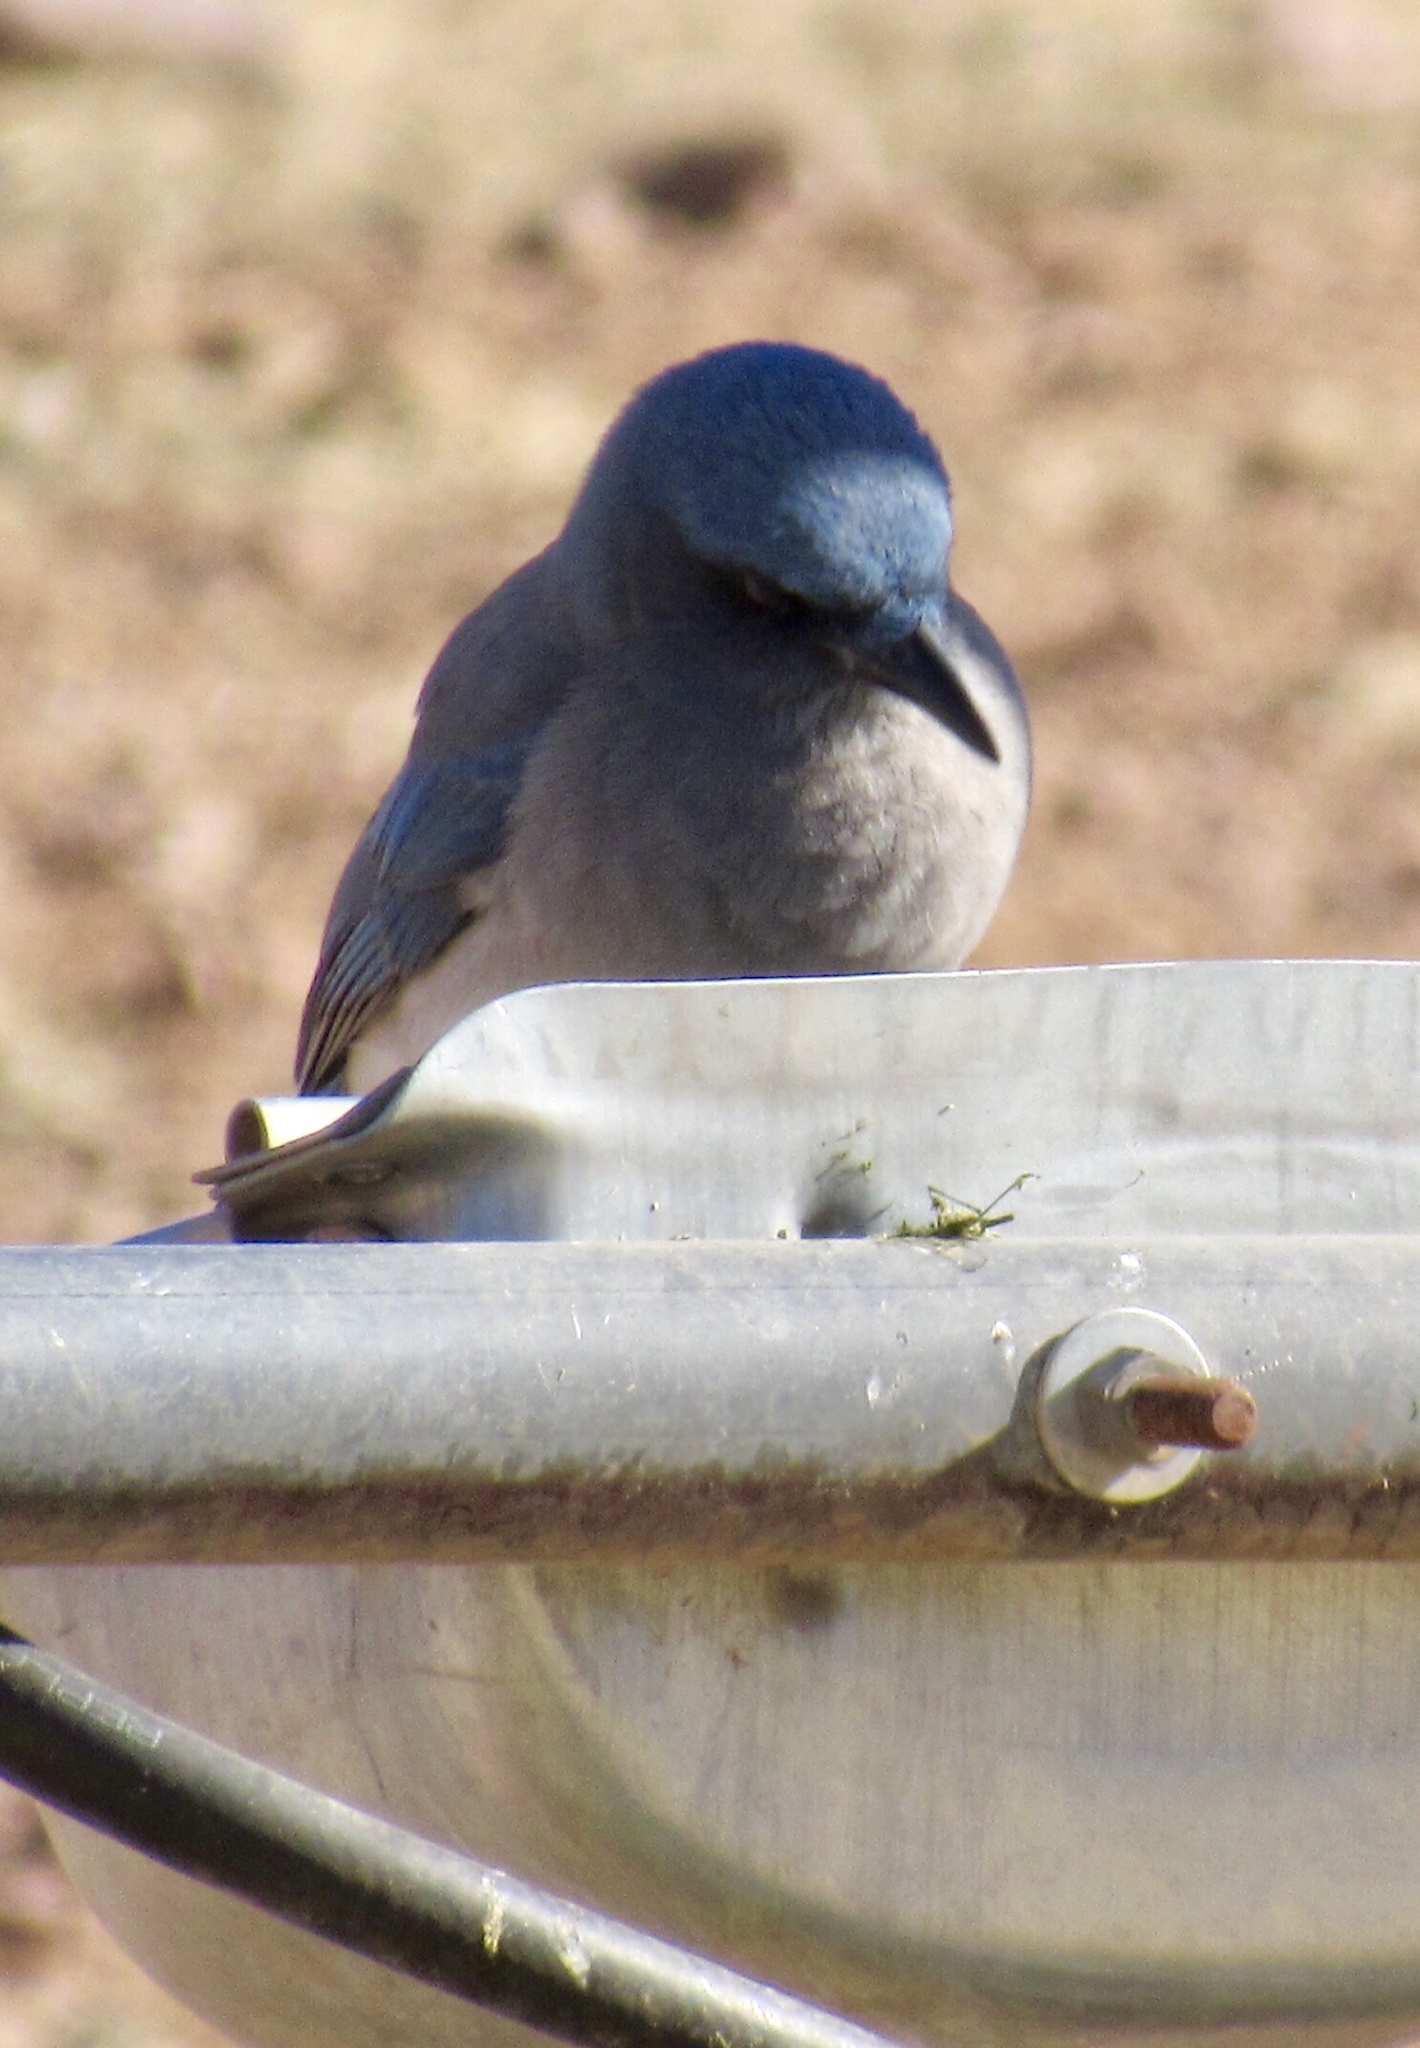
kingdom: Animalia
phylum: Chordata
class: Aves
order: Passeriformes
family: Corvidae
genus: Aphelocoma
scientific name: Aphelocoma wollweberi
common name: Mexican jay
